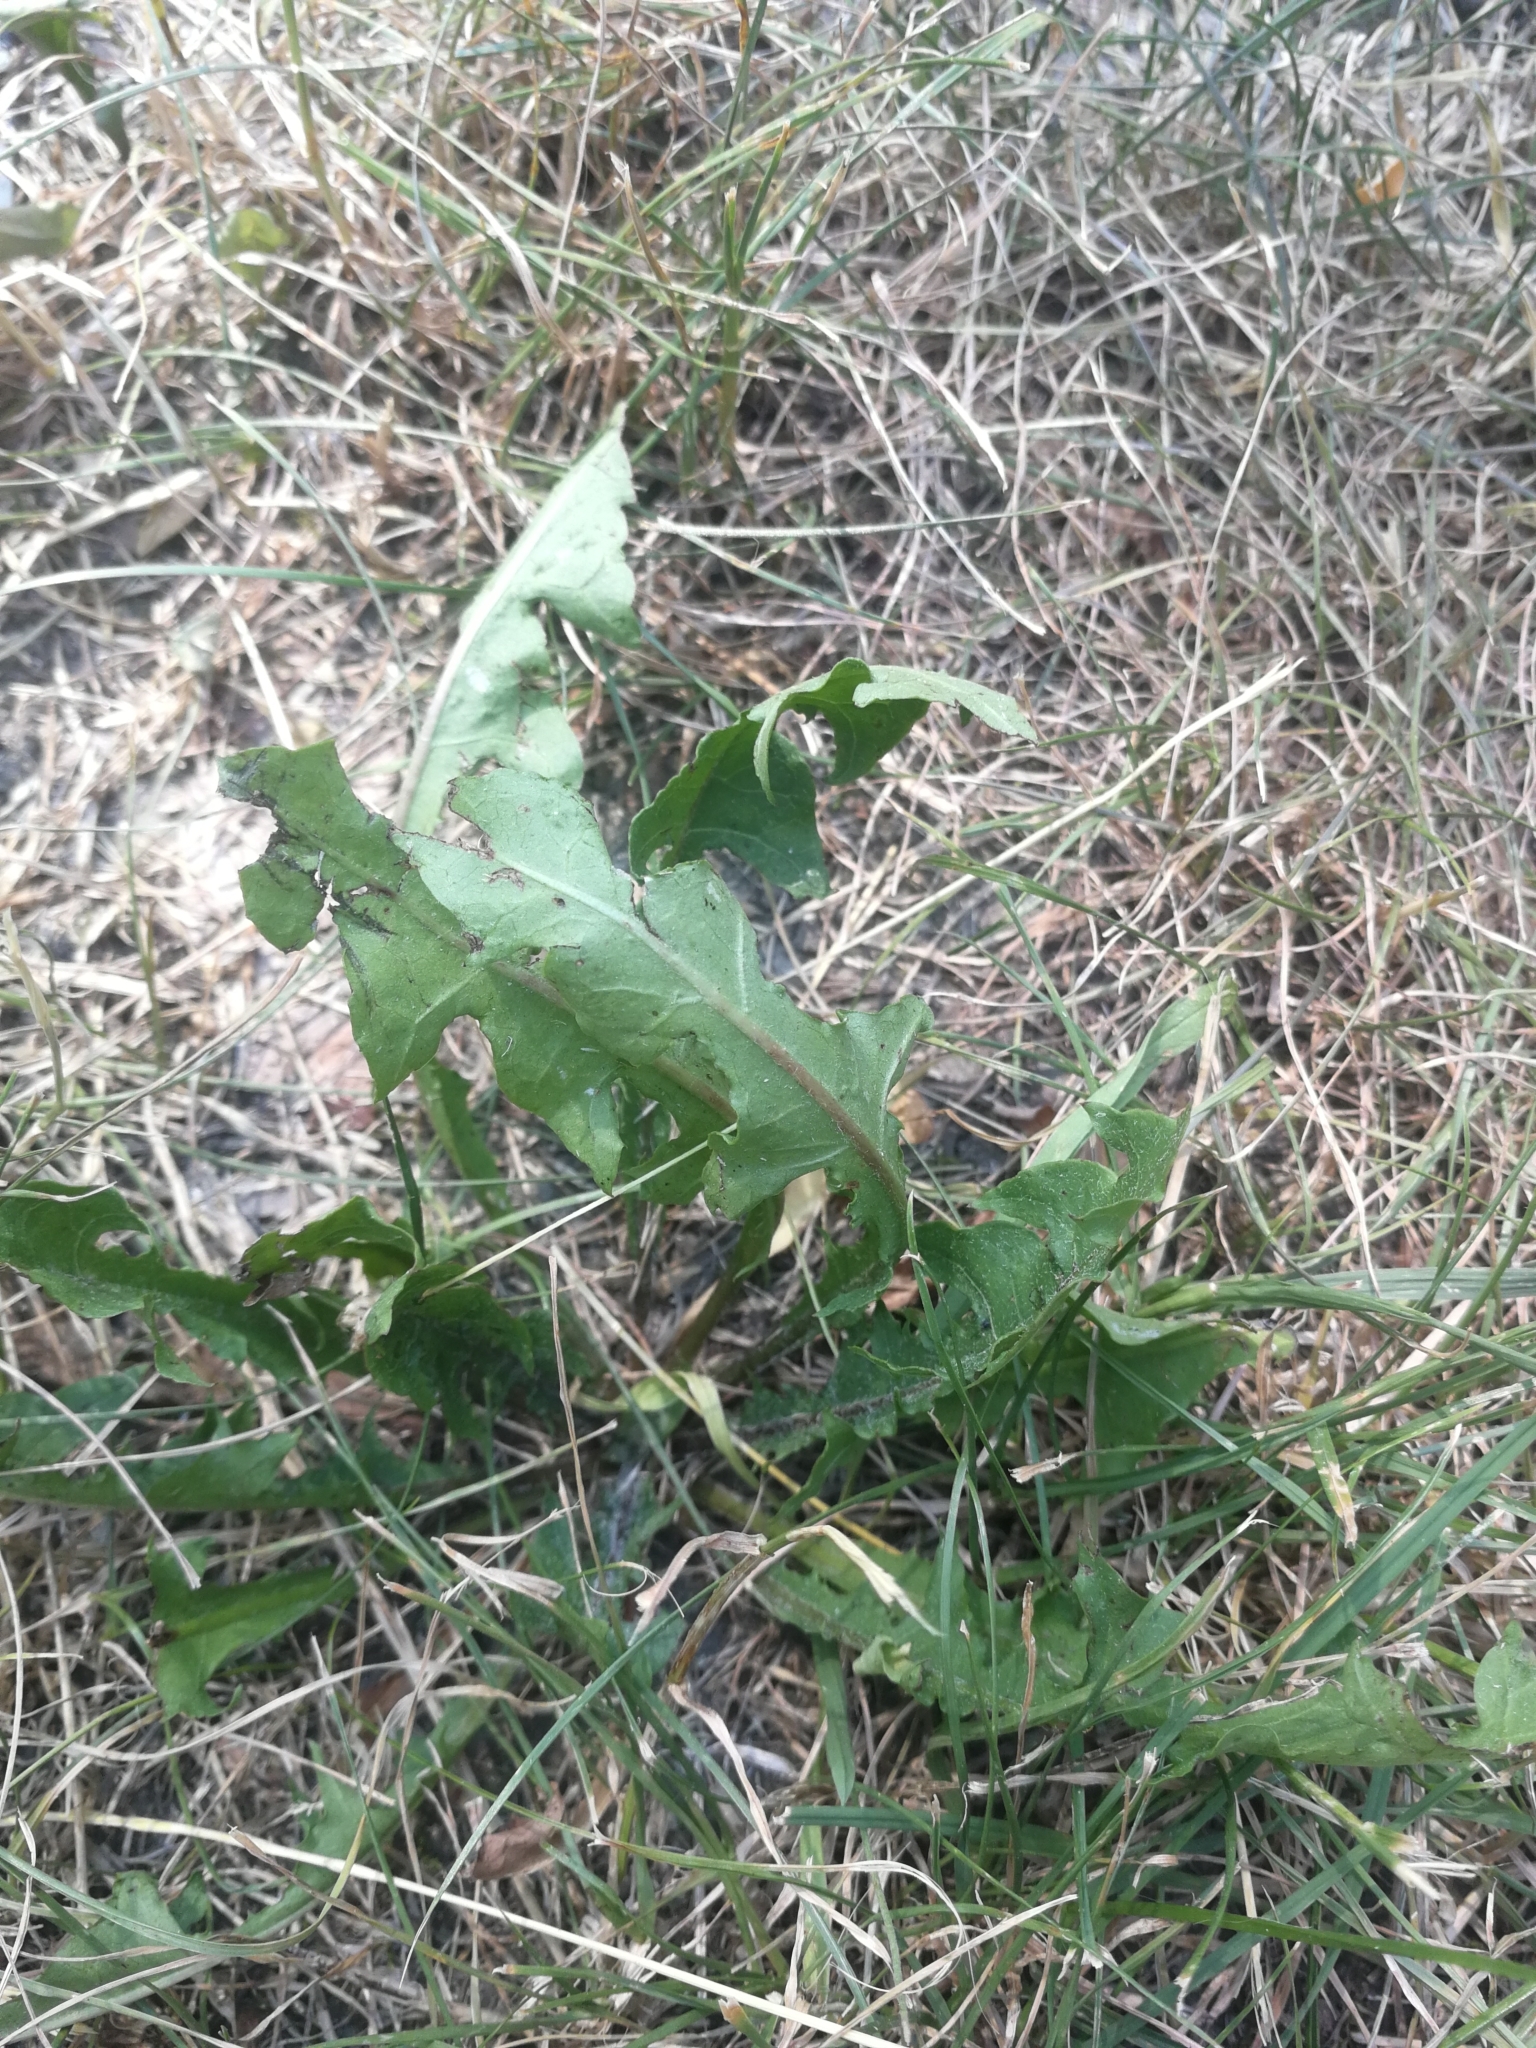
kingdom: Plantae
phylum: Tracheophyta
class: Magnoliopsida
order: Asterales
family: Asteraceae
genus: Taraxacum
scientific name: Taraxacum officinale
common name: Common dandelion
